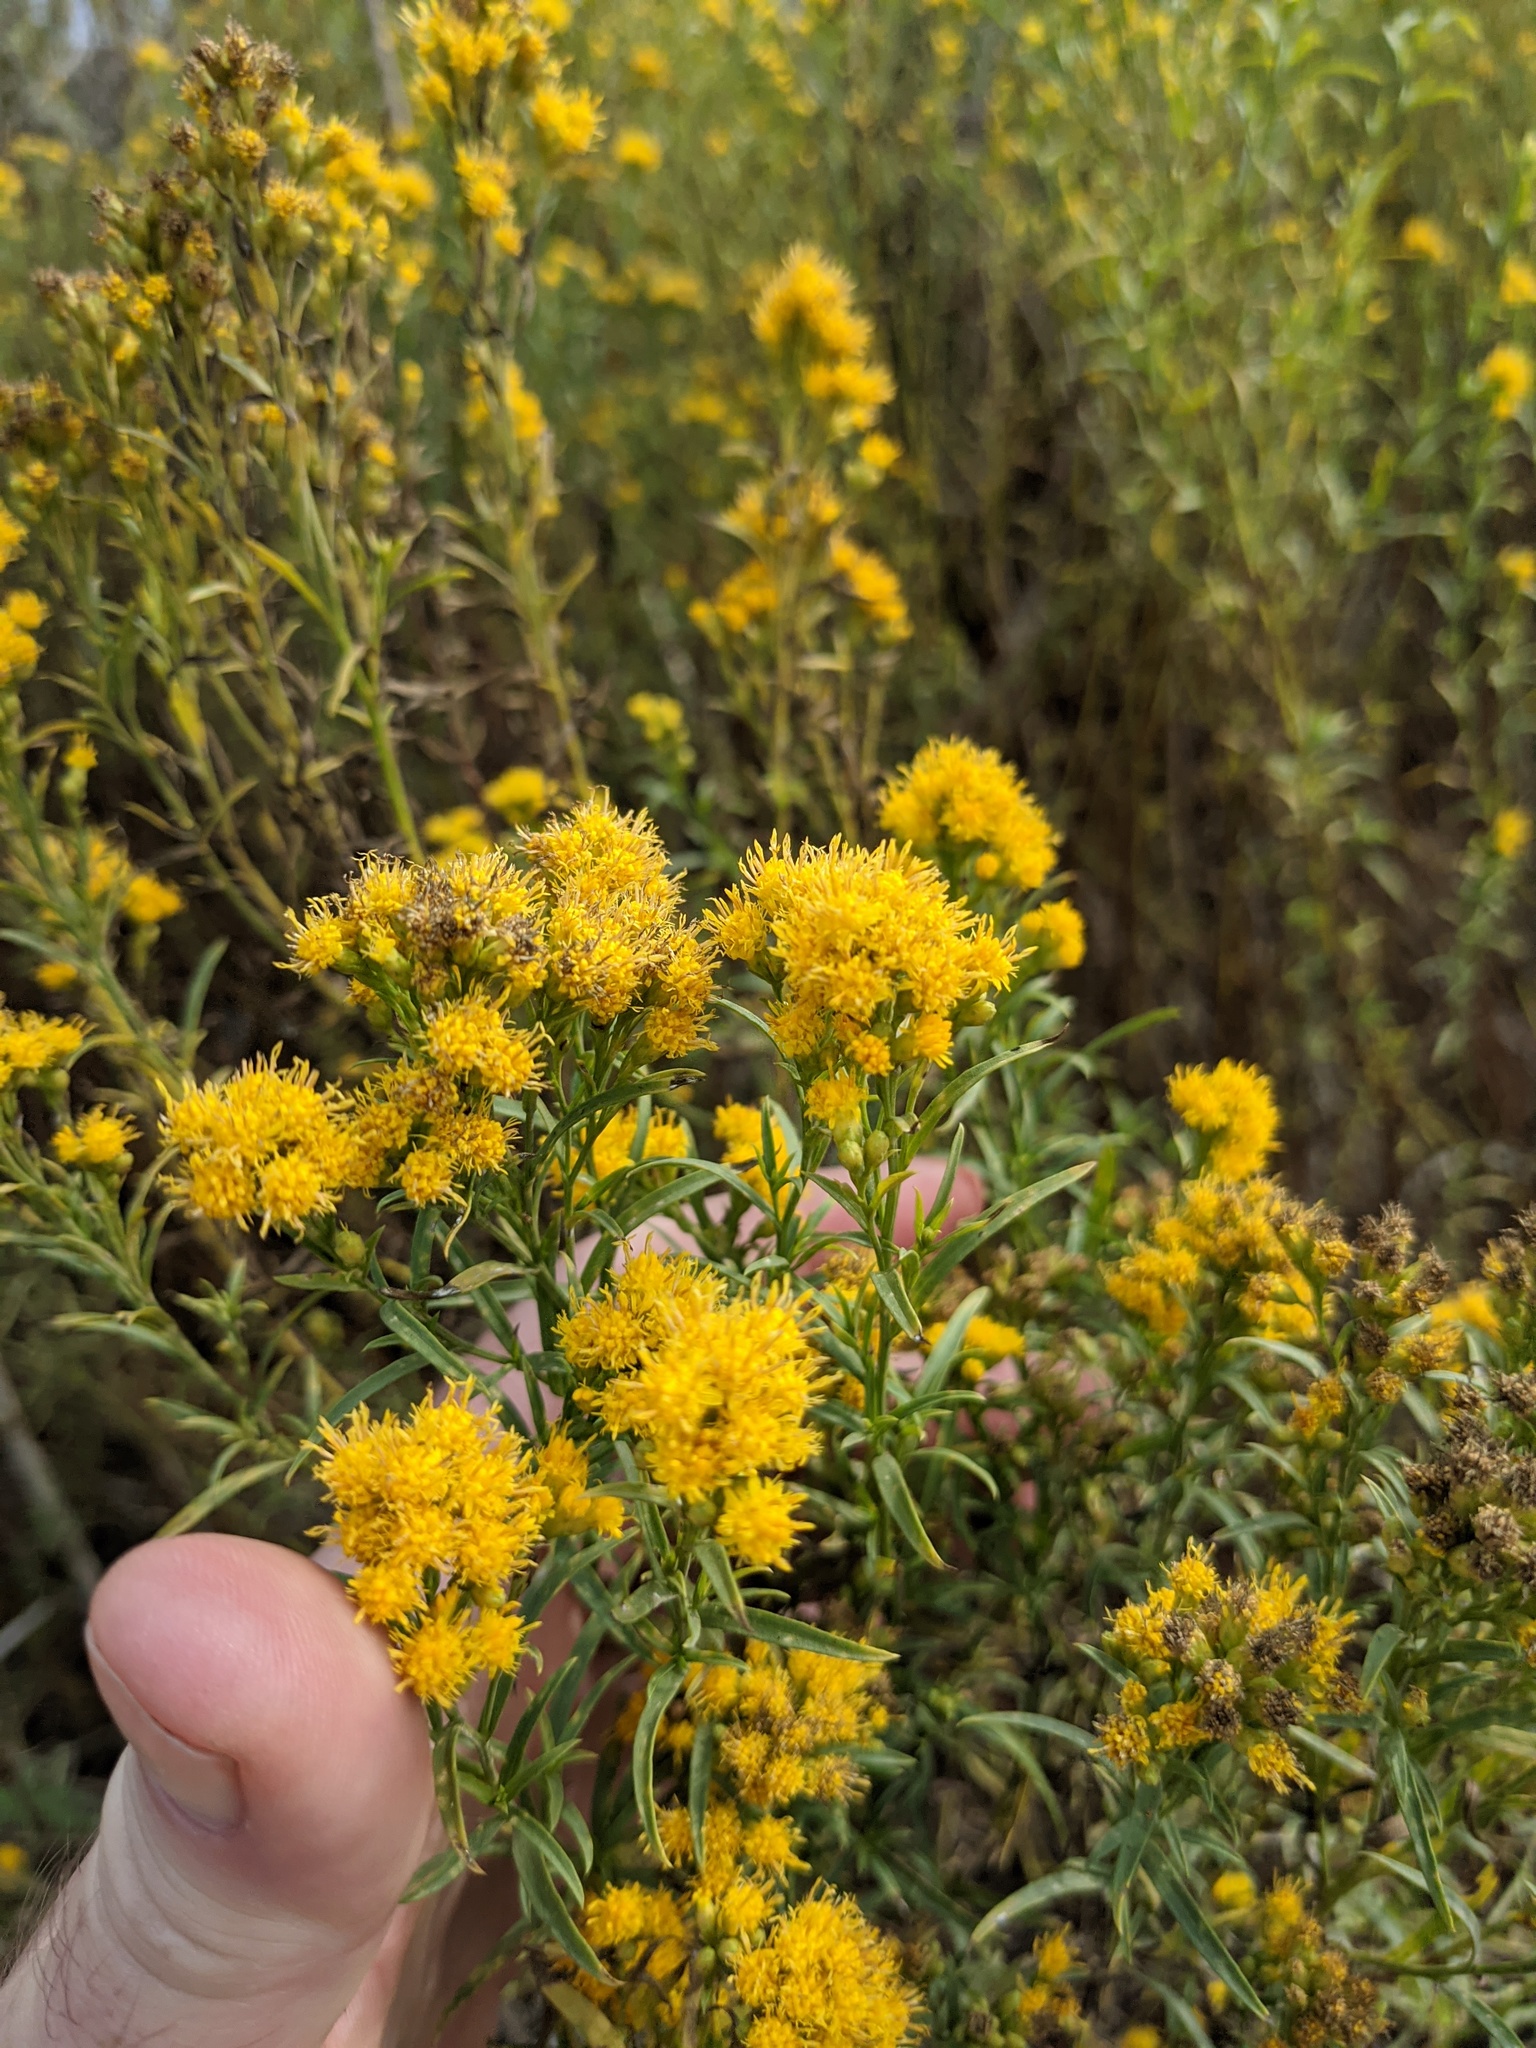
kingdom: Plantae
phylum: Tracheophyta
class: Magnoliopsida
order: Asterales
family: Asteraceae
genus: Euthamia
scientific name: Euthamia occidentalis
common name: Western goldentop
